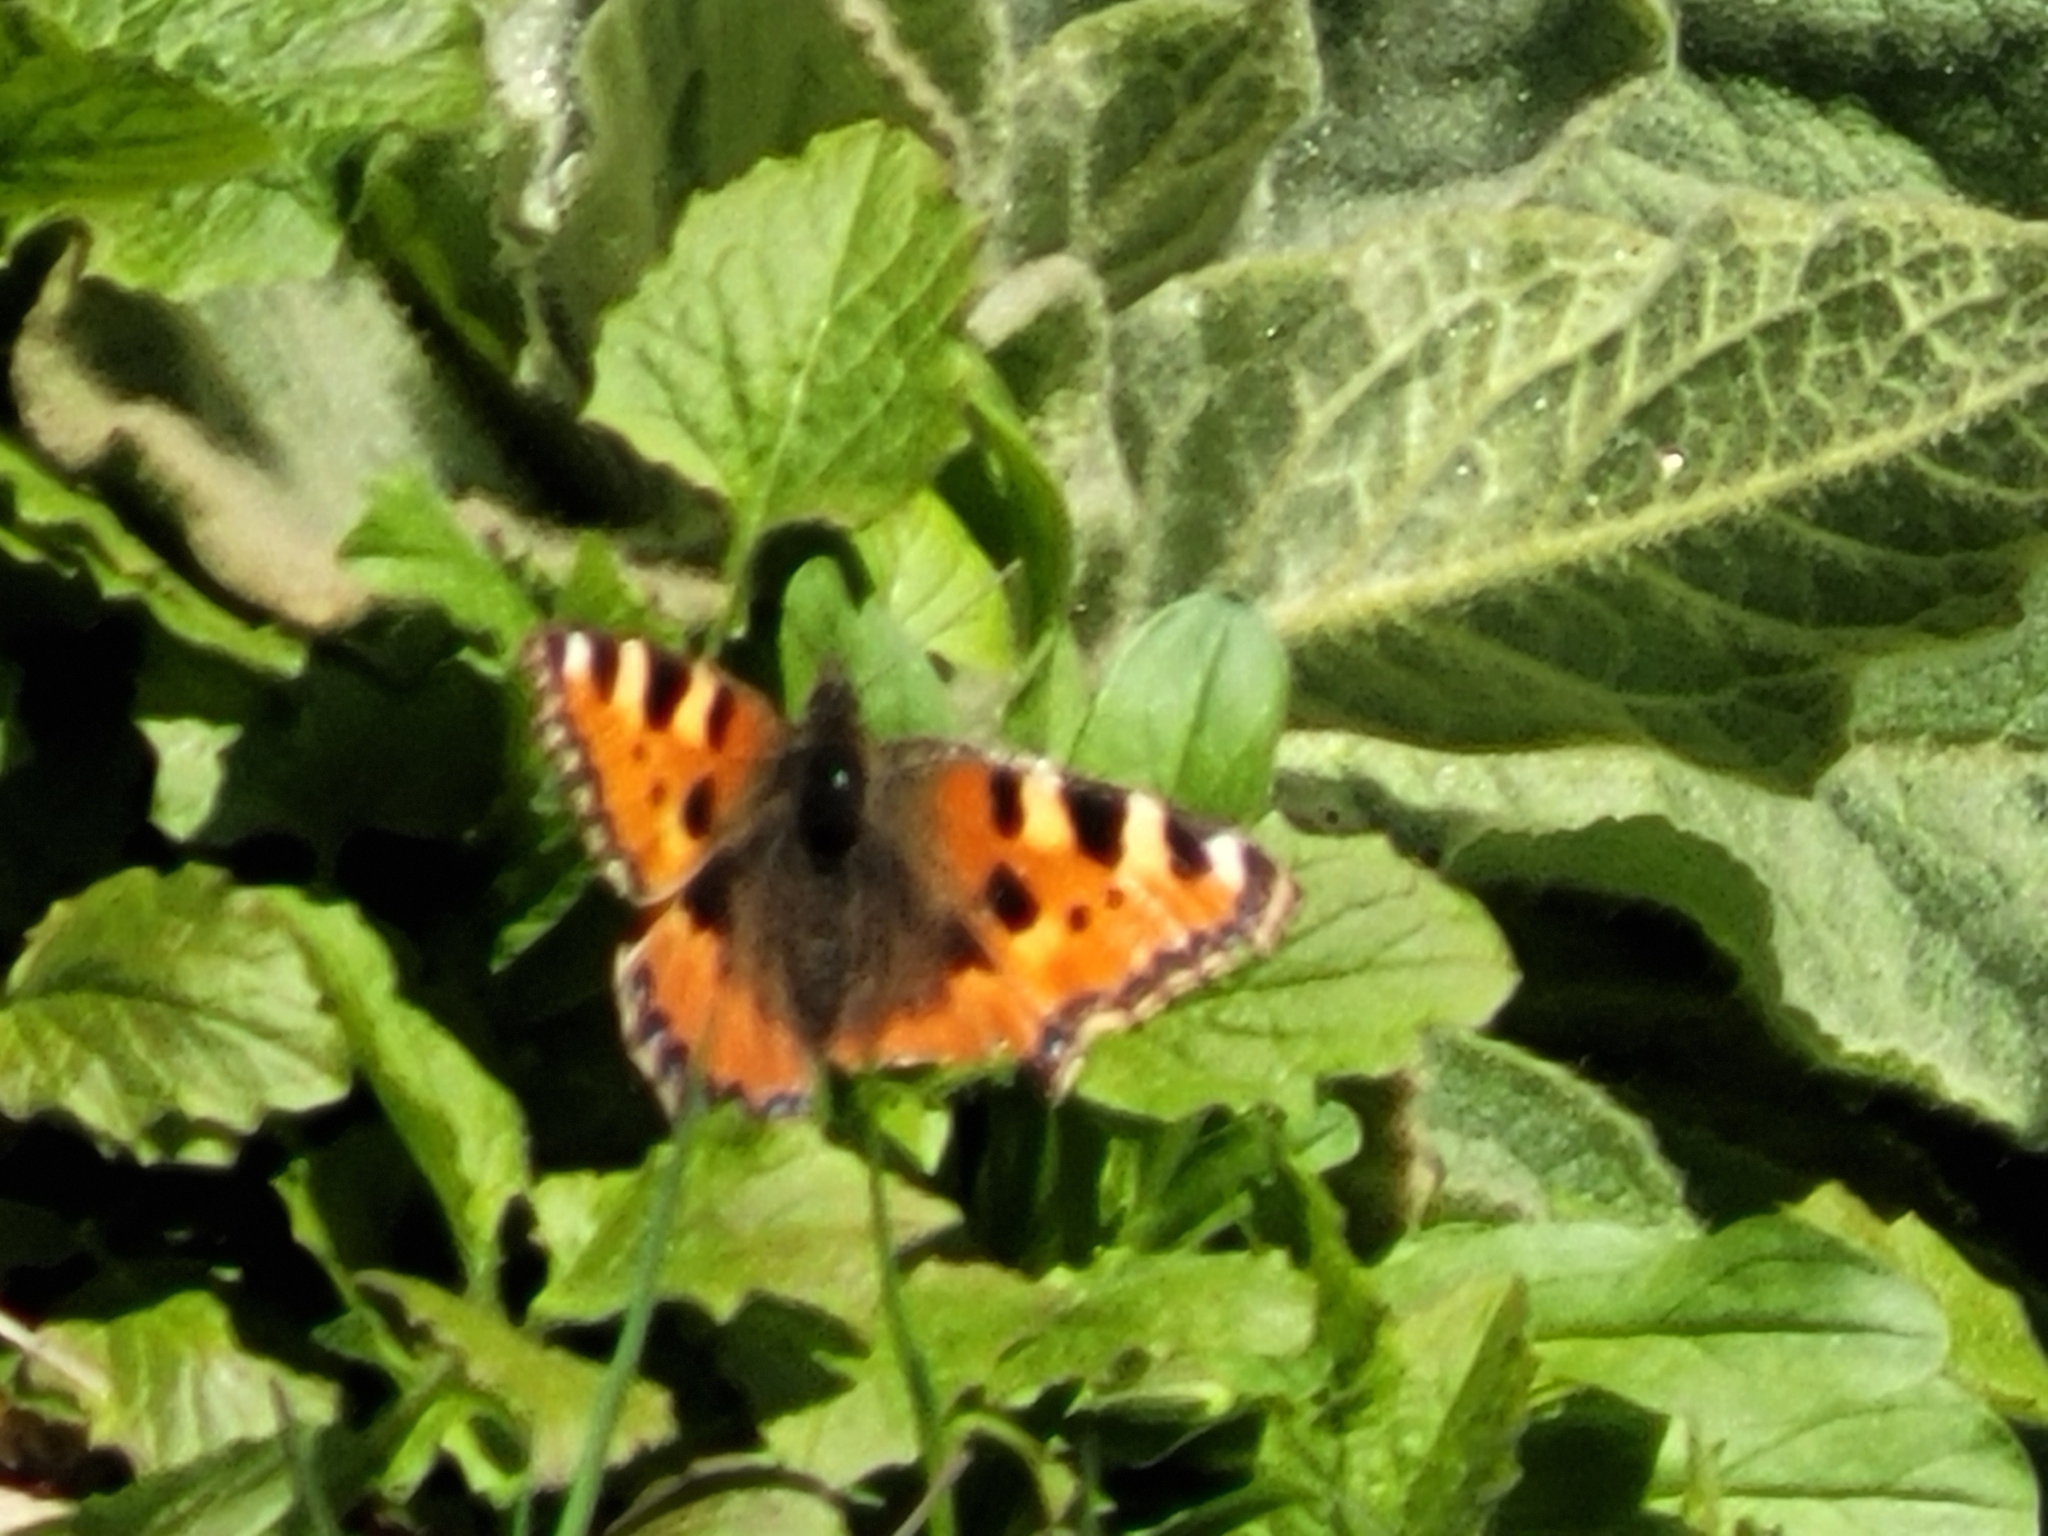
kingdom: Animalia
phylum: Arthropoda
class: Insecta
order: Lepidoptera
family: Nymphalidae
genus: Aglais
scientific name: Aglais urticae
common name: Small tortoiseshell
